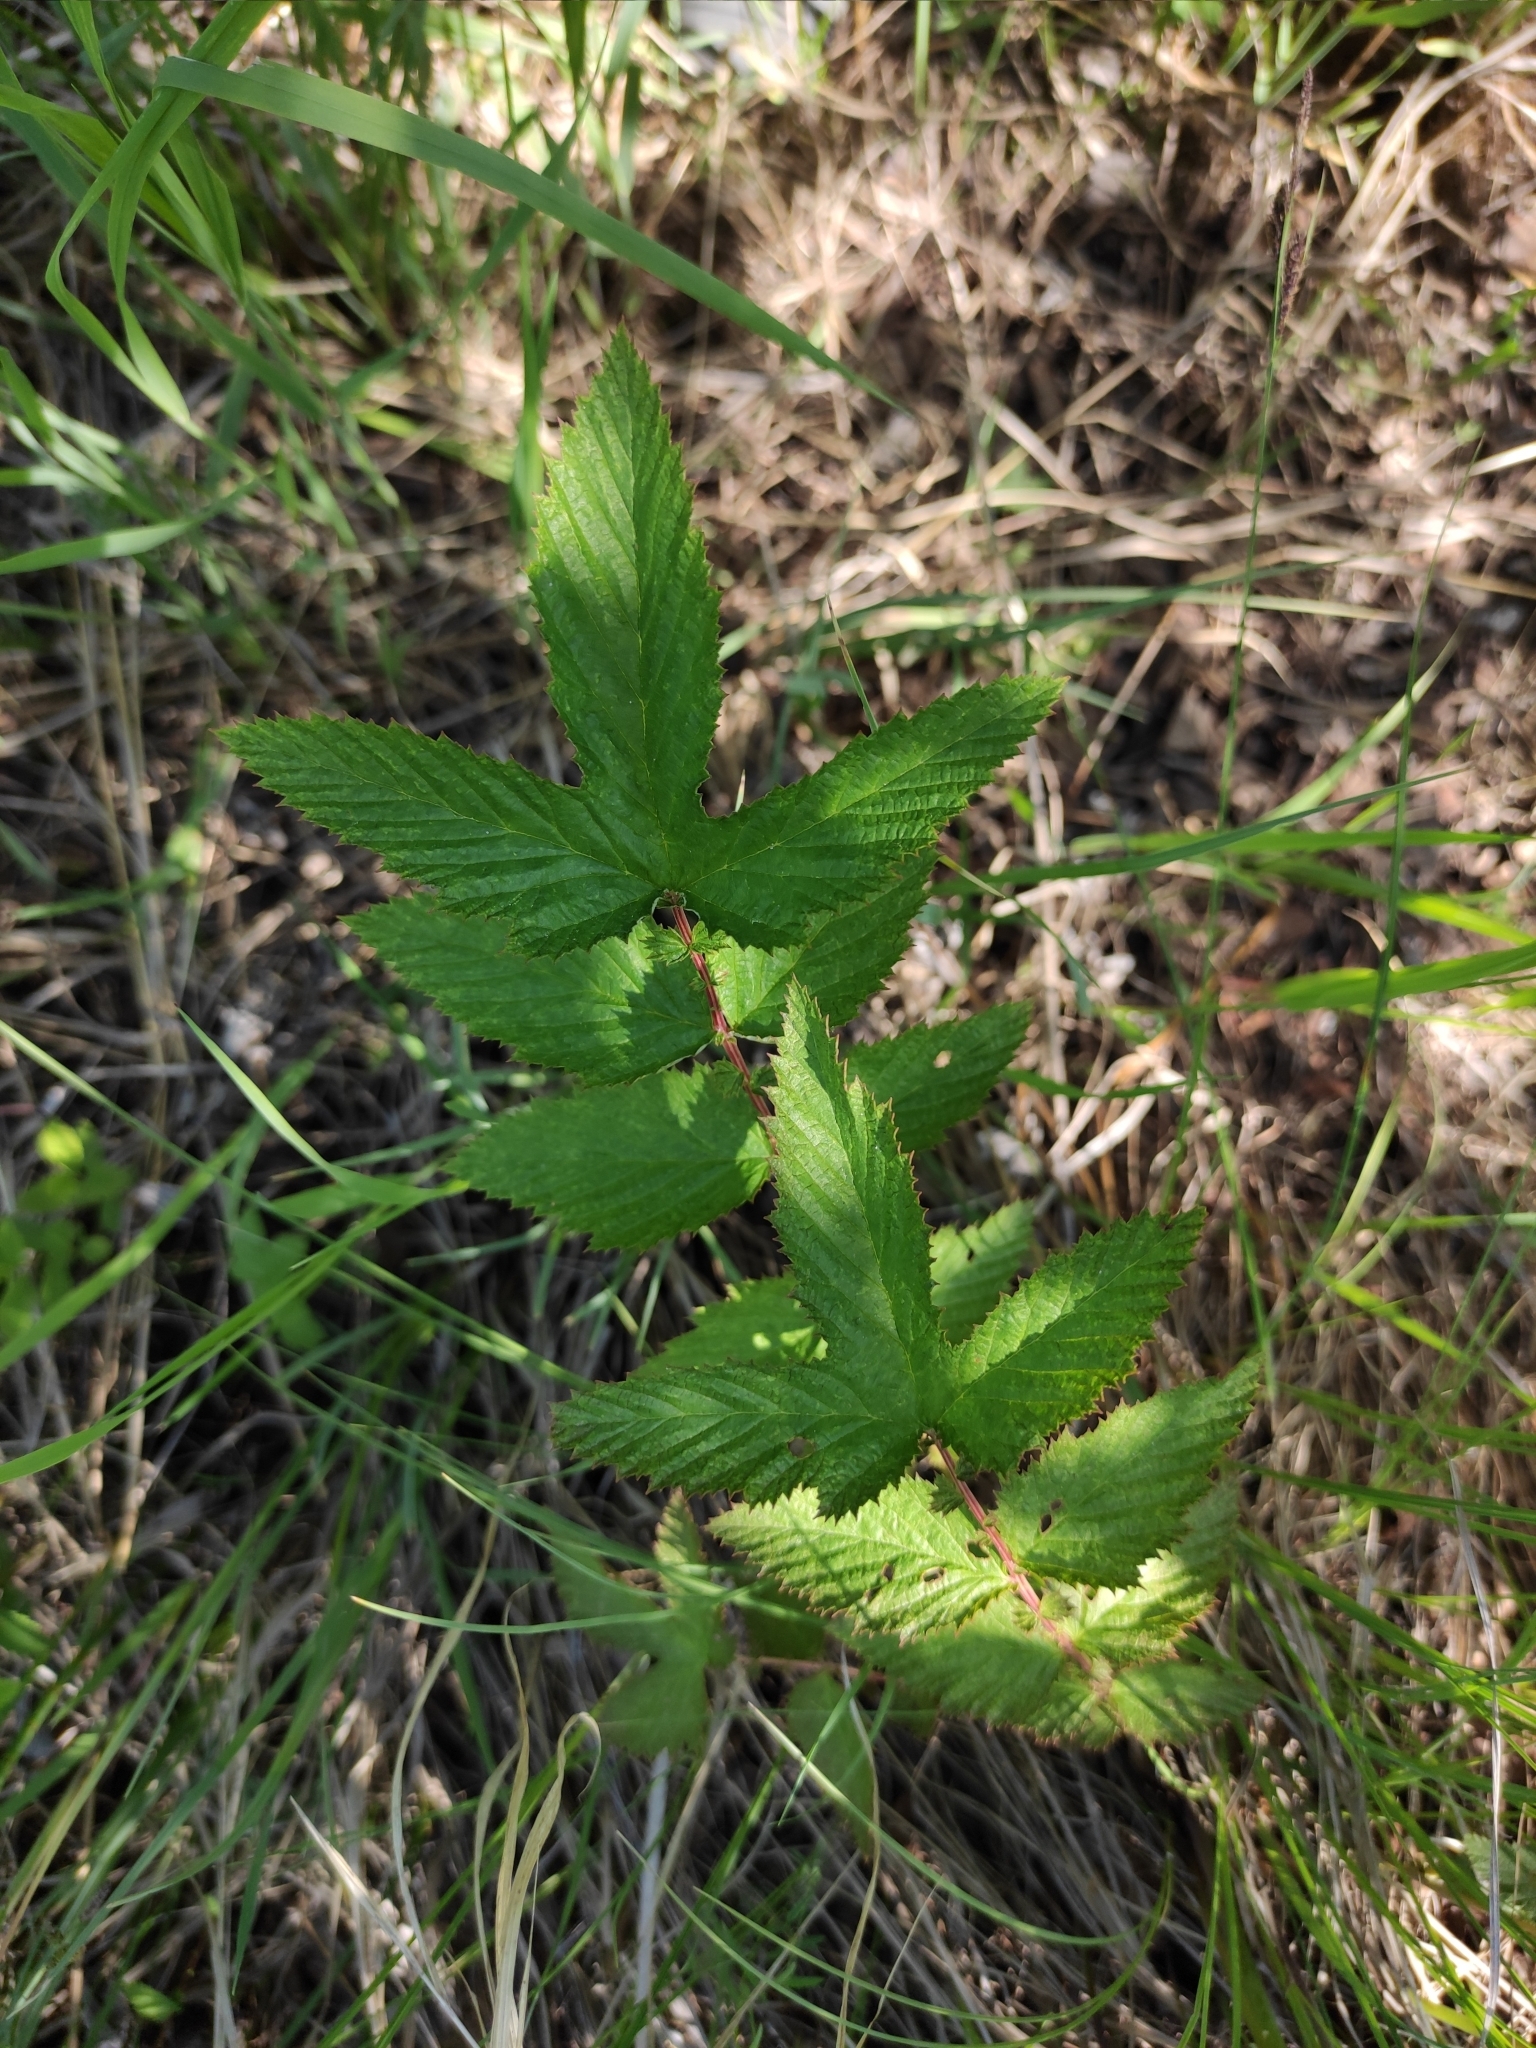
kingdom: Plantae
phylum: Tracheophyta
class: Magnoliopsida
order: Rosales
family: Rosaceae
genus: Filipendula
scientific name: Filipendula ulmaria
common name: Meadowsweet
